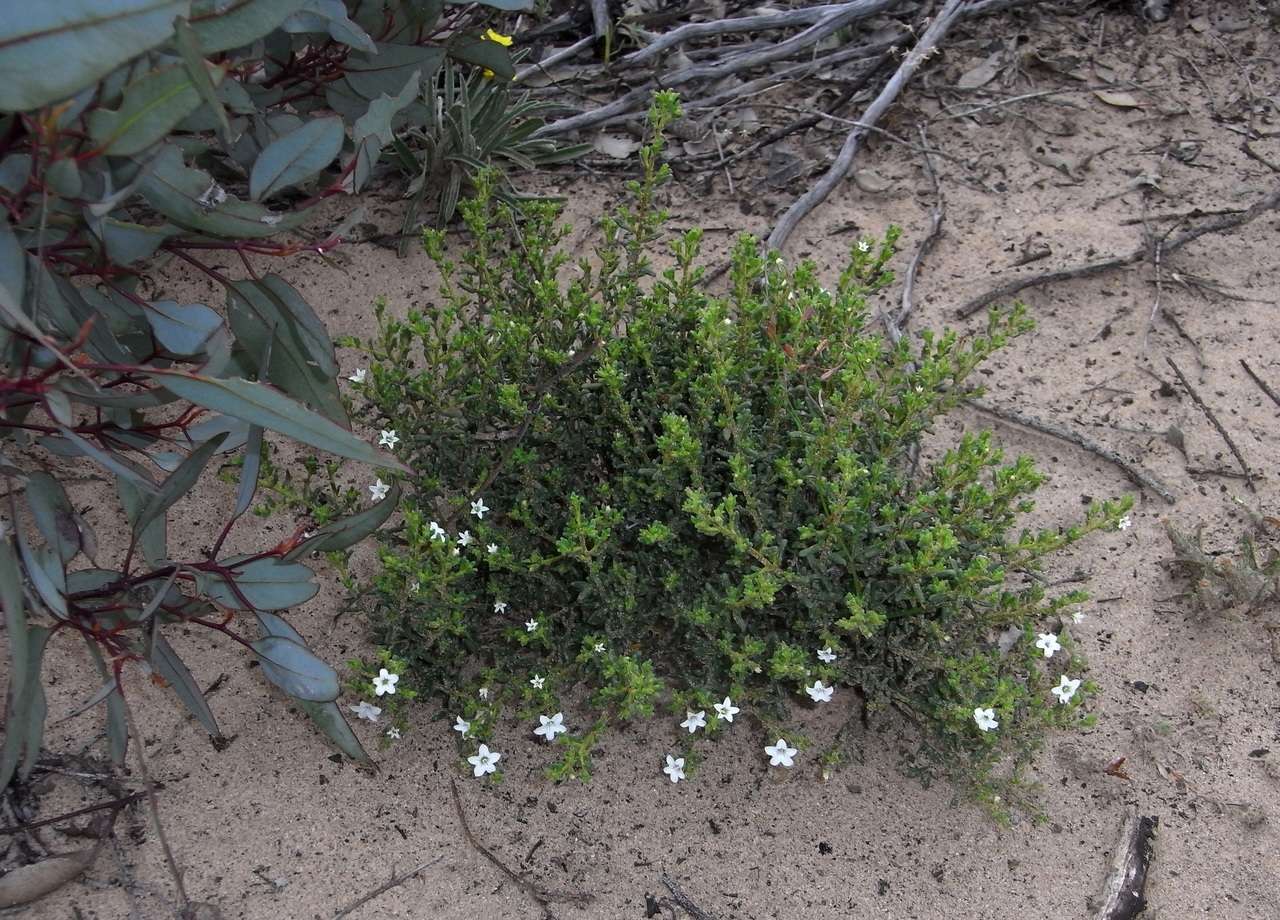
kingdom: Plantae
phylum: Tracheophyta
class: Magnoliopsida
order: Solanales
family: Solanaceae
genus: Cyphanthera
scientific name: Cyphanthera myosotidea
